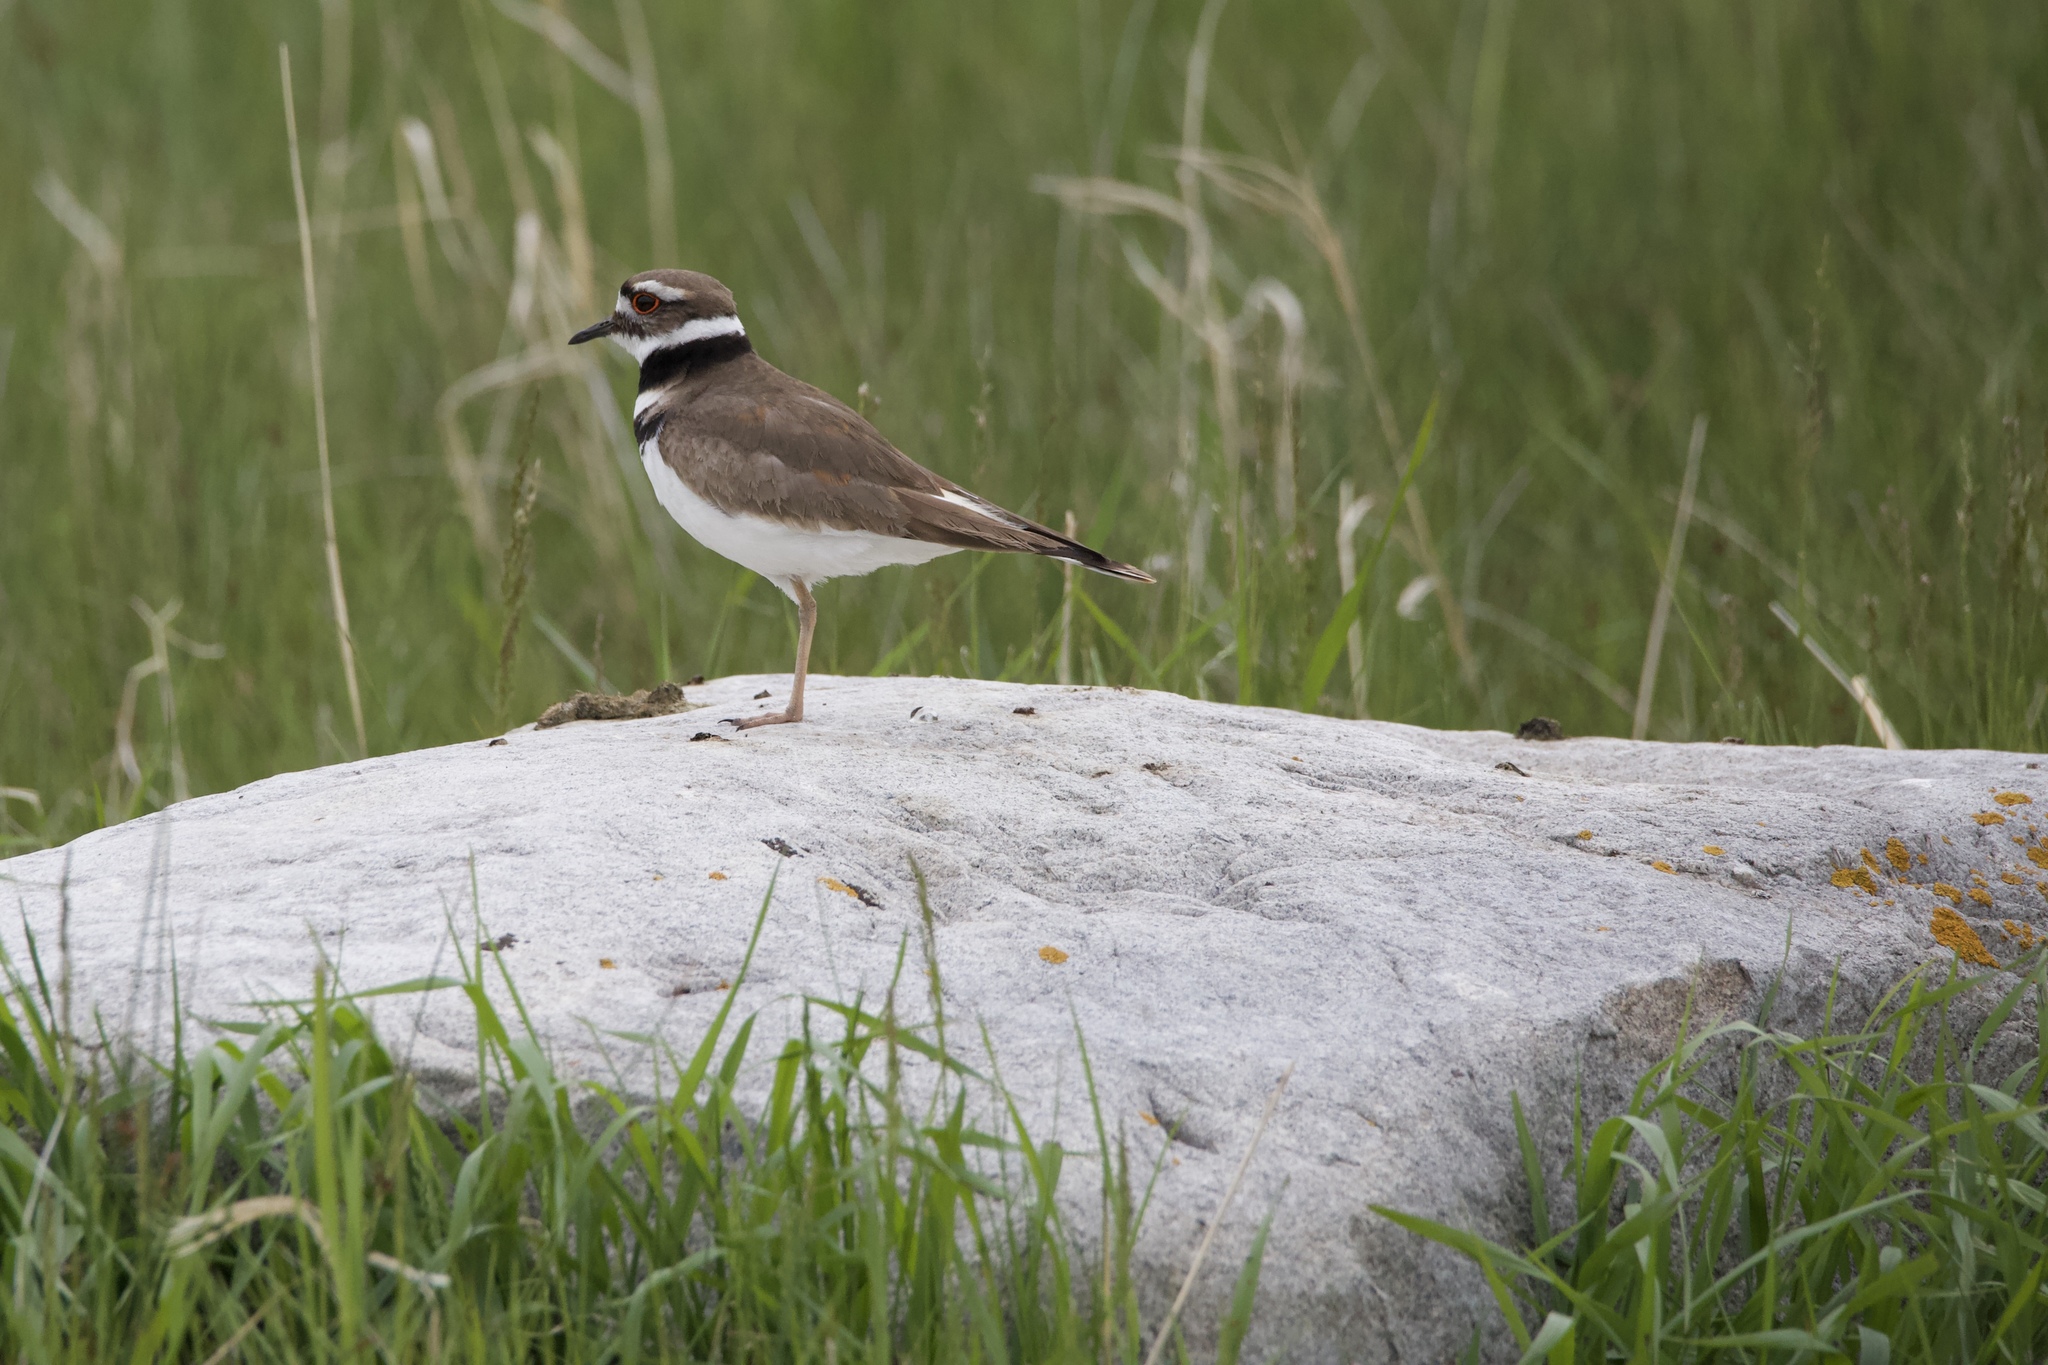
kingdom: Animalia
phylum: Chordata
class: Aves
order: Charadriiformes
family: Charadriidae
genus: Charadrius
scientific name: Charadrius vociferus
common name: Killdeer
